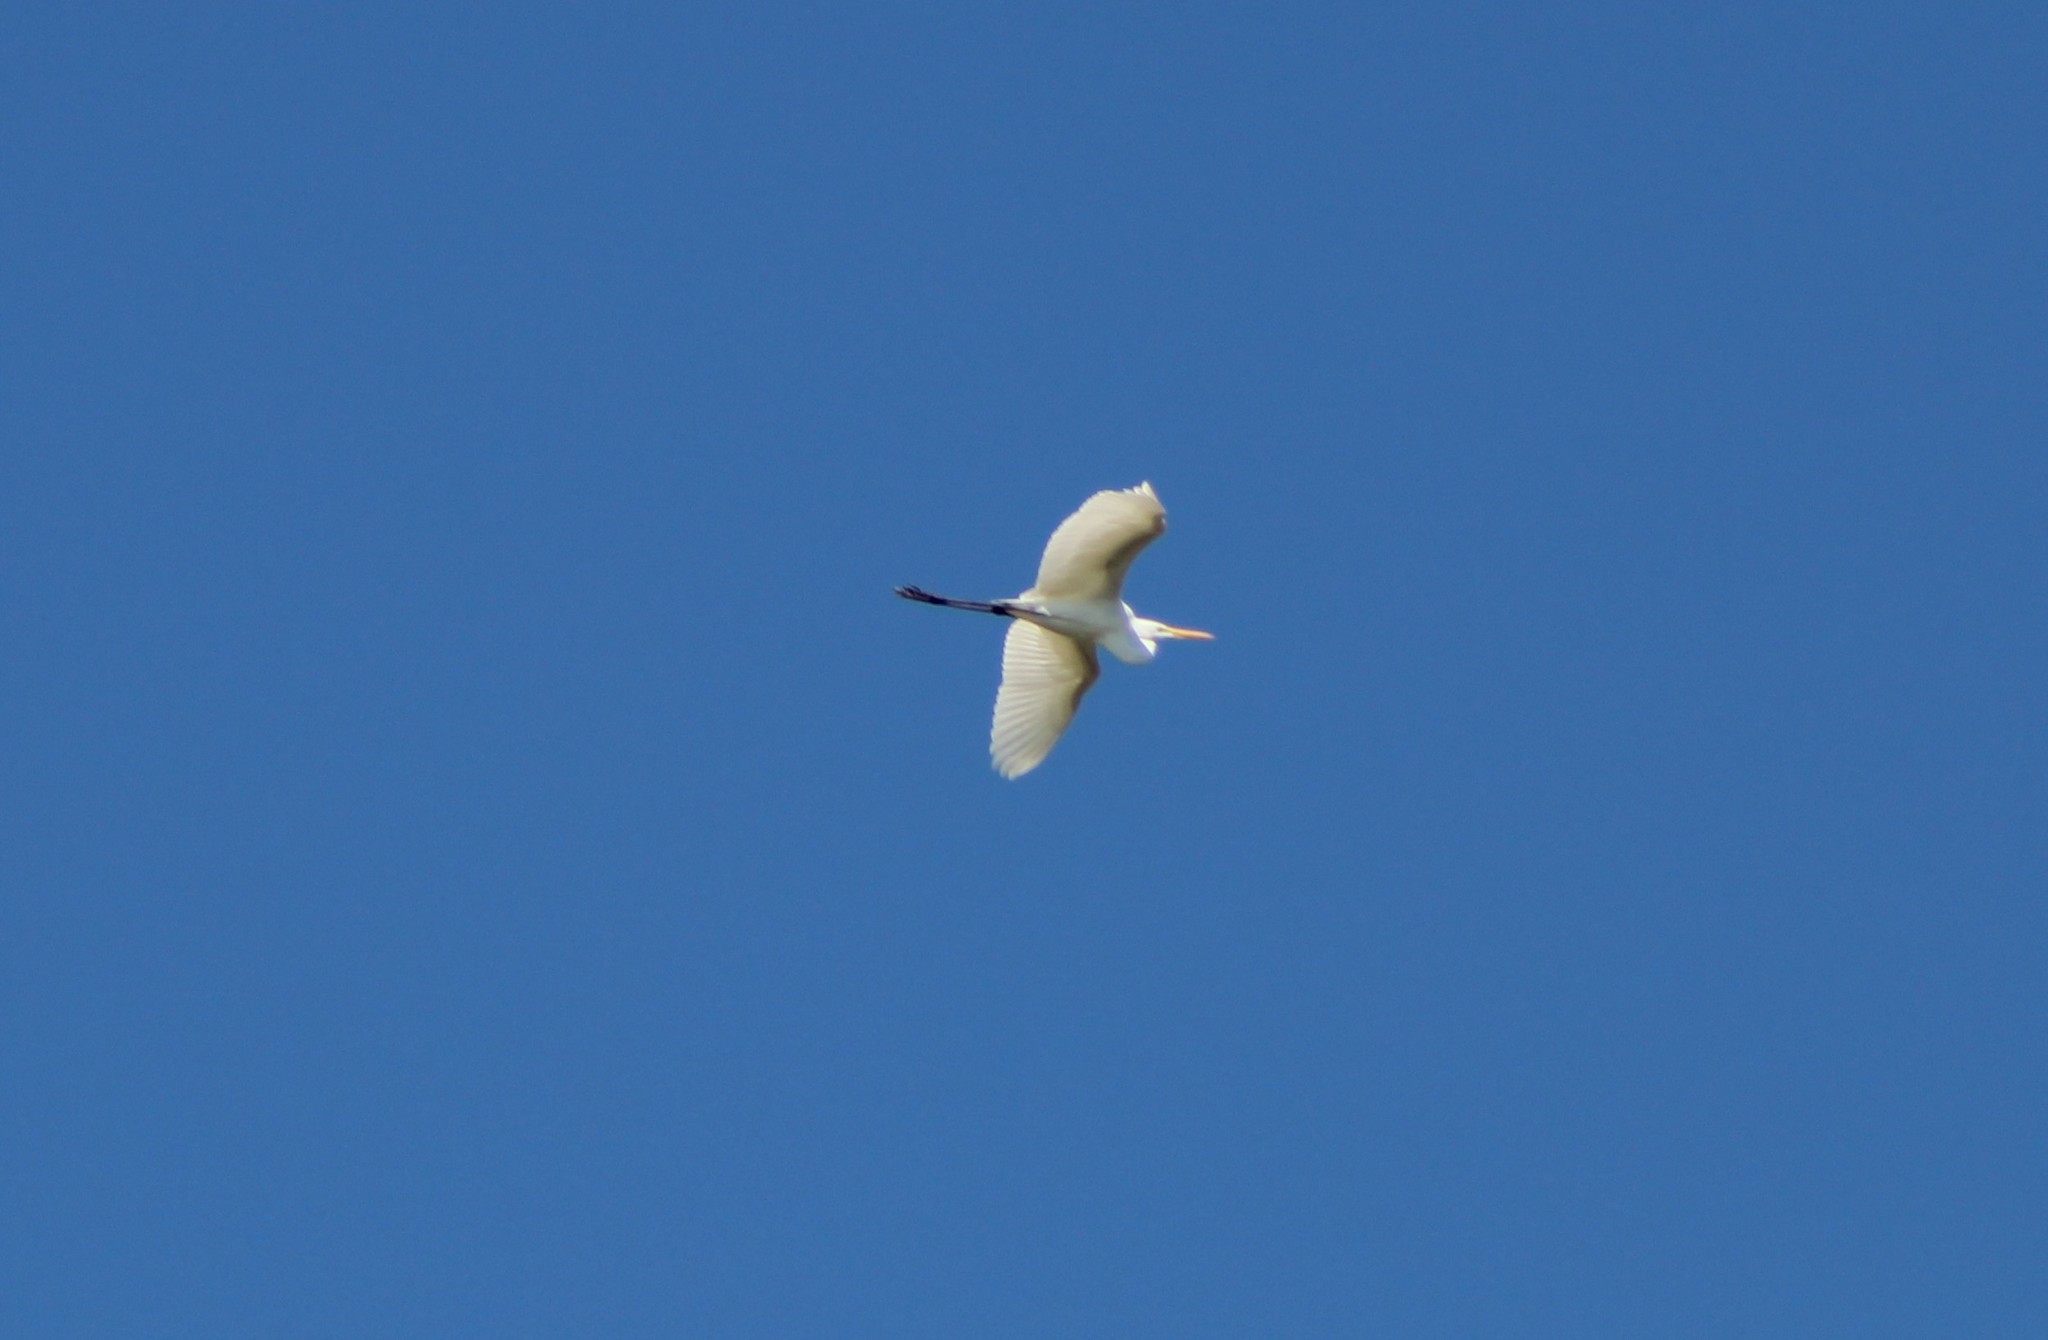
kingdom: Animalia
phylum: Chordata
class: Aves
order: Pelecaniformes
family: Ardeidae
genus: Ardea
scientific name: Ardea alba
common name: Great egret
